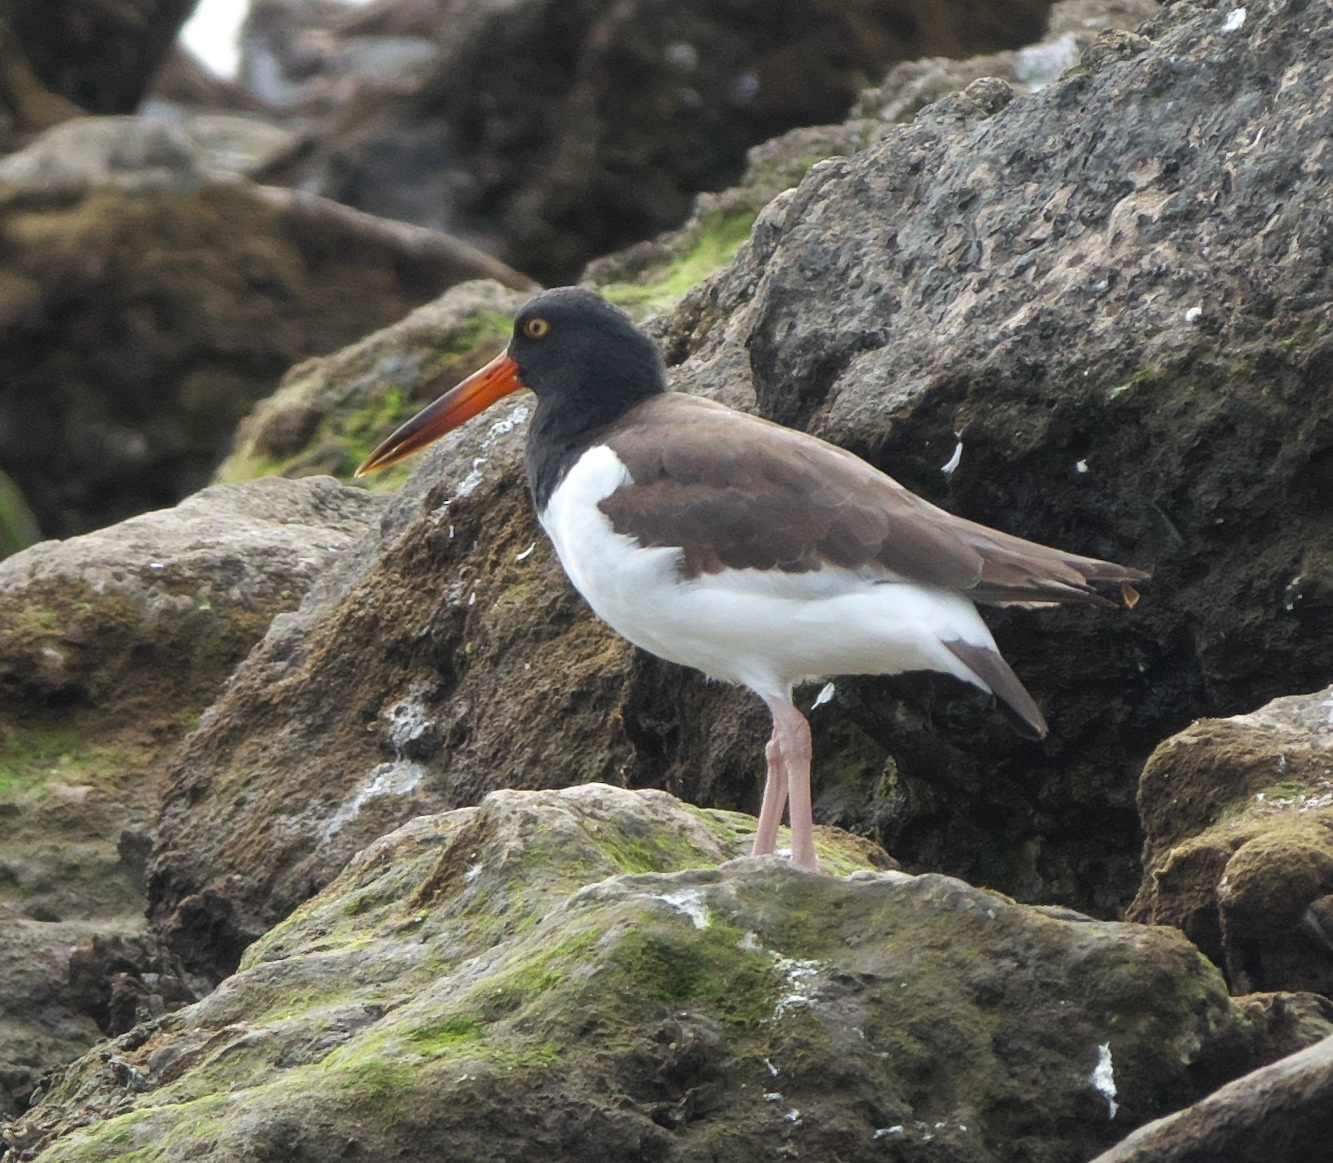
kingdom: Animalia
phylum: Chordata
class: Aves
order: Charadriiformes
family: Haematopodidae
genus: Haematopus
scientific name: Haematopus palliatus
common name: American oystercatcher
